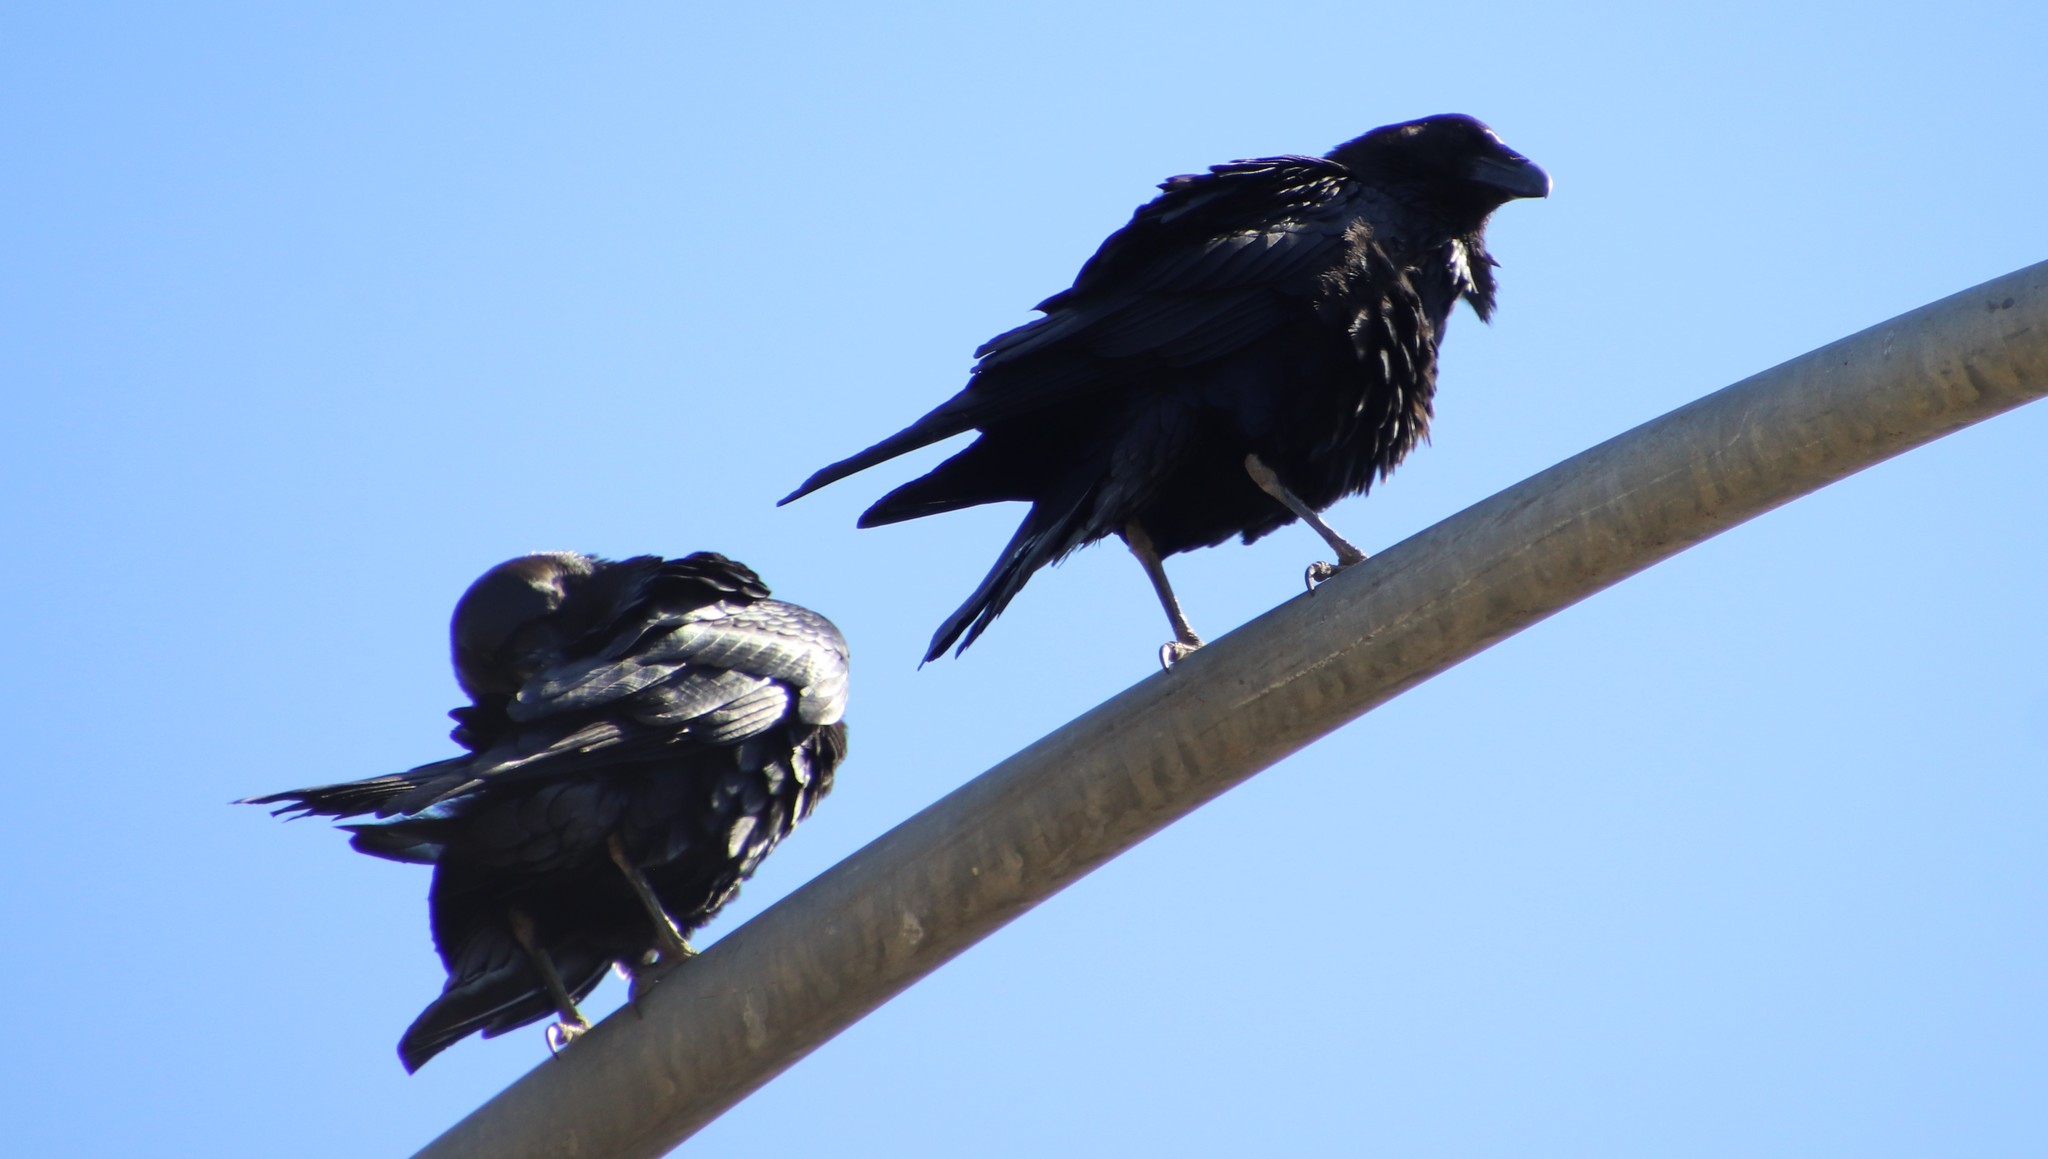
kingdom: Animalia
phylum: Chordata
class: Aves
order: Passeriformes
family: Corvidae
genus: Corvus
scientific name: Corvus corax
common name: Common raven
